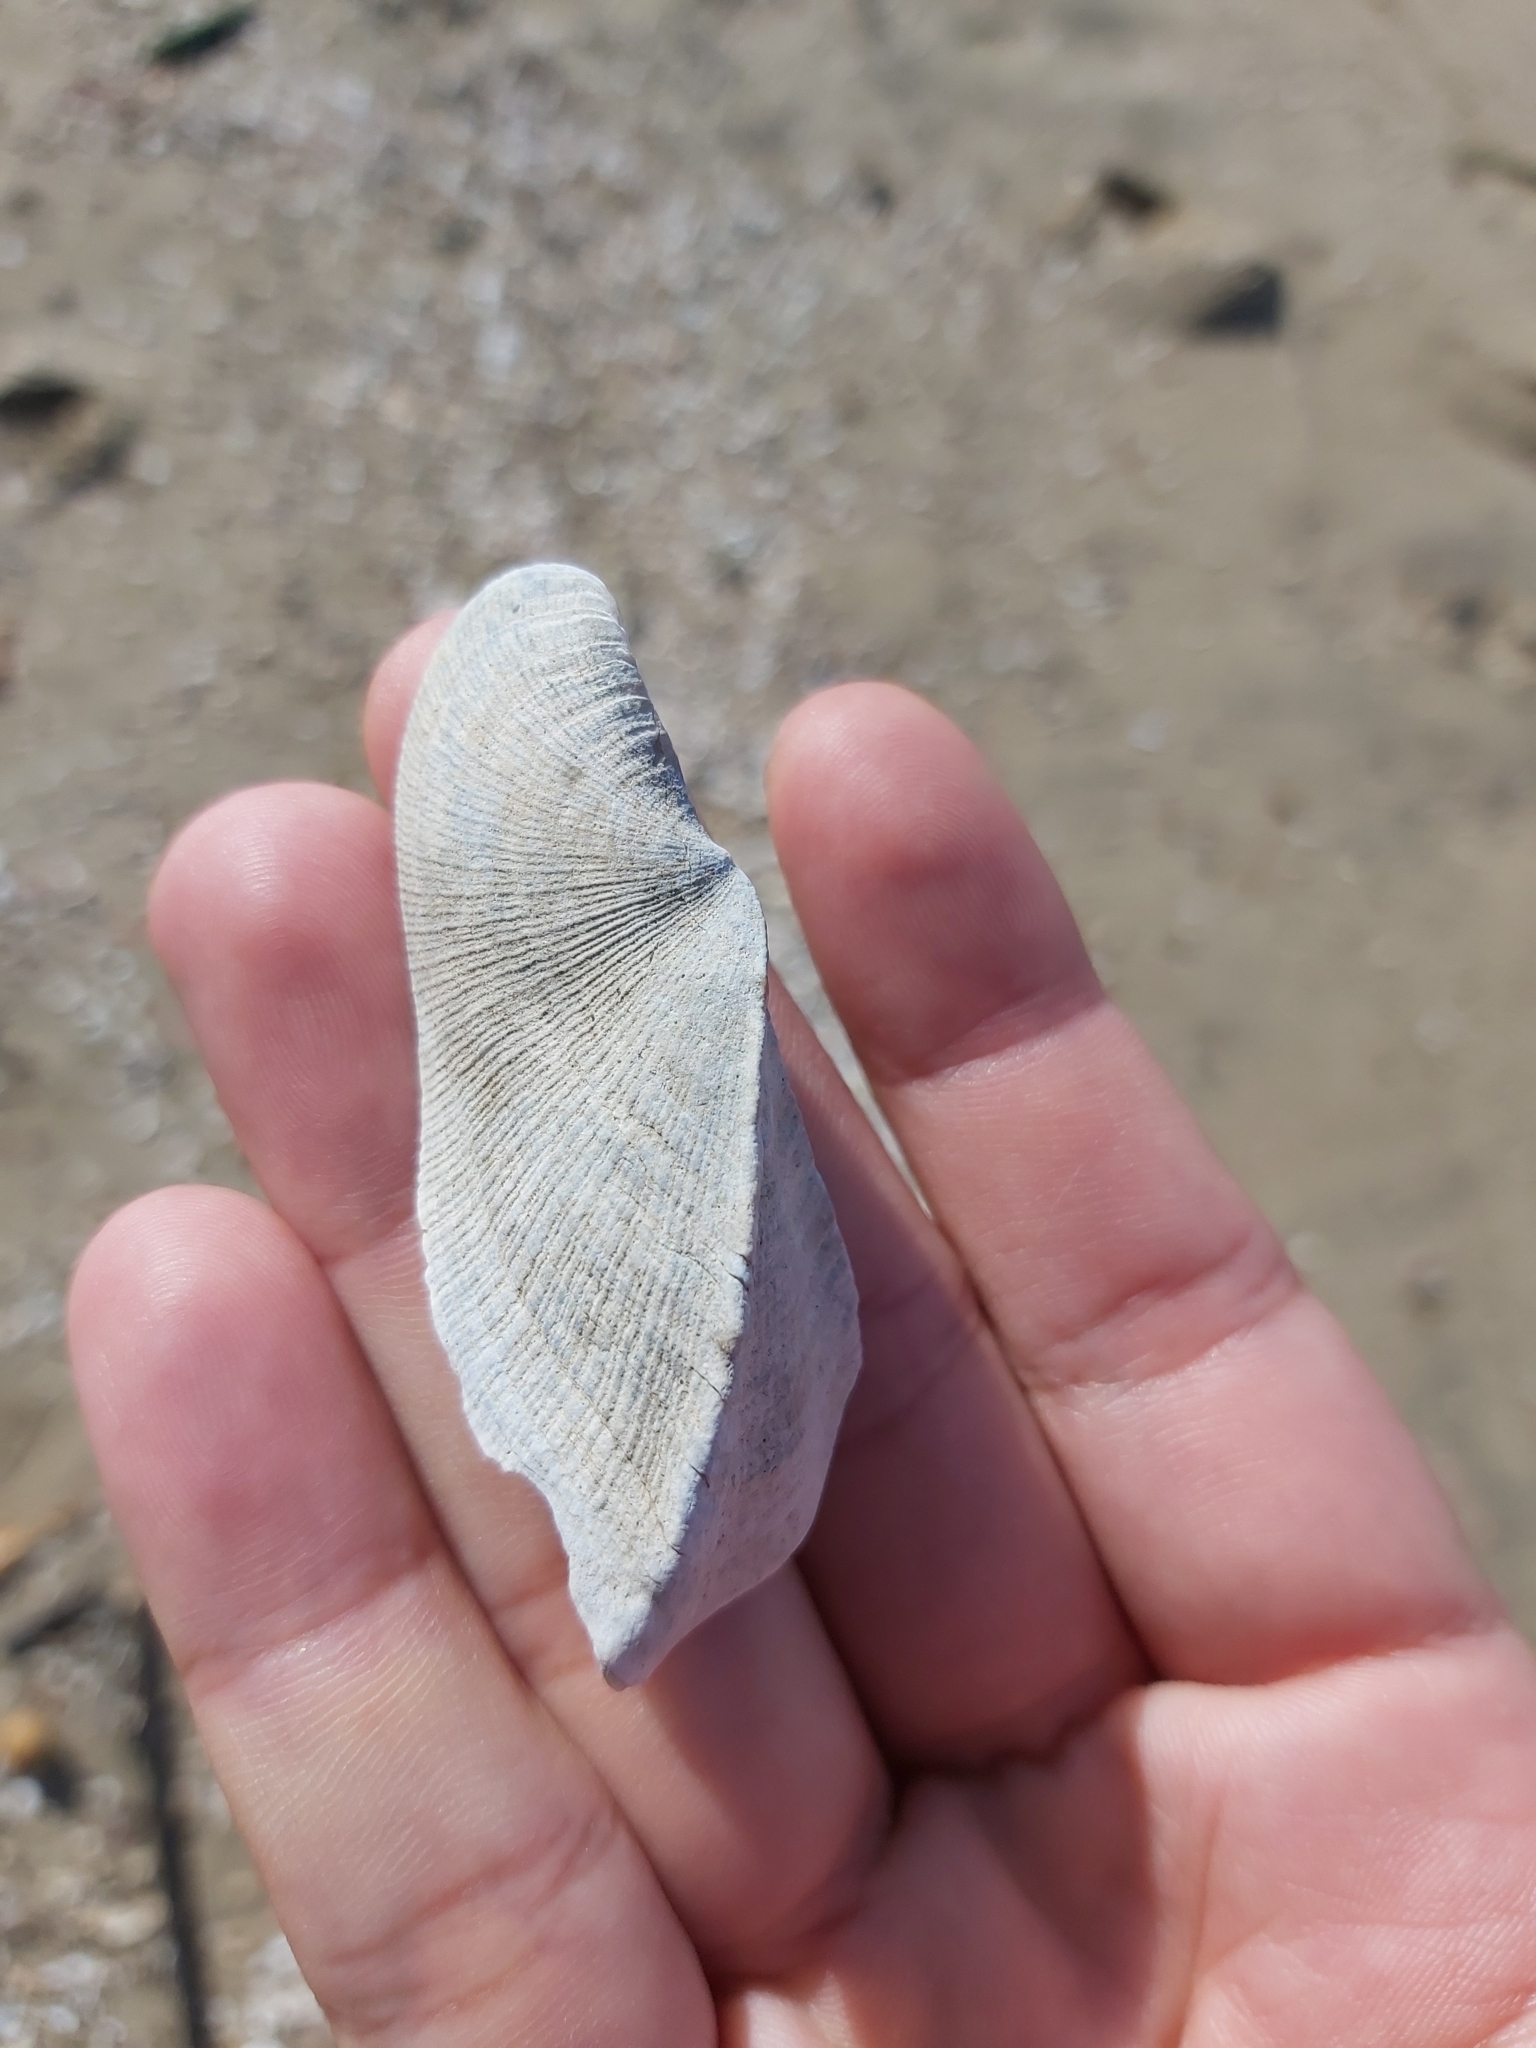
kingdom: Animalia
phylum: Mollusca
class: Bivalvia
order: Arcida
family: Arcidae
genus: Trisidos
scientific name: Trisidos tortuosa
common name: Propeller ark
